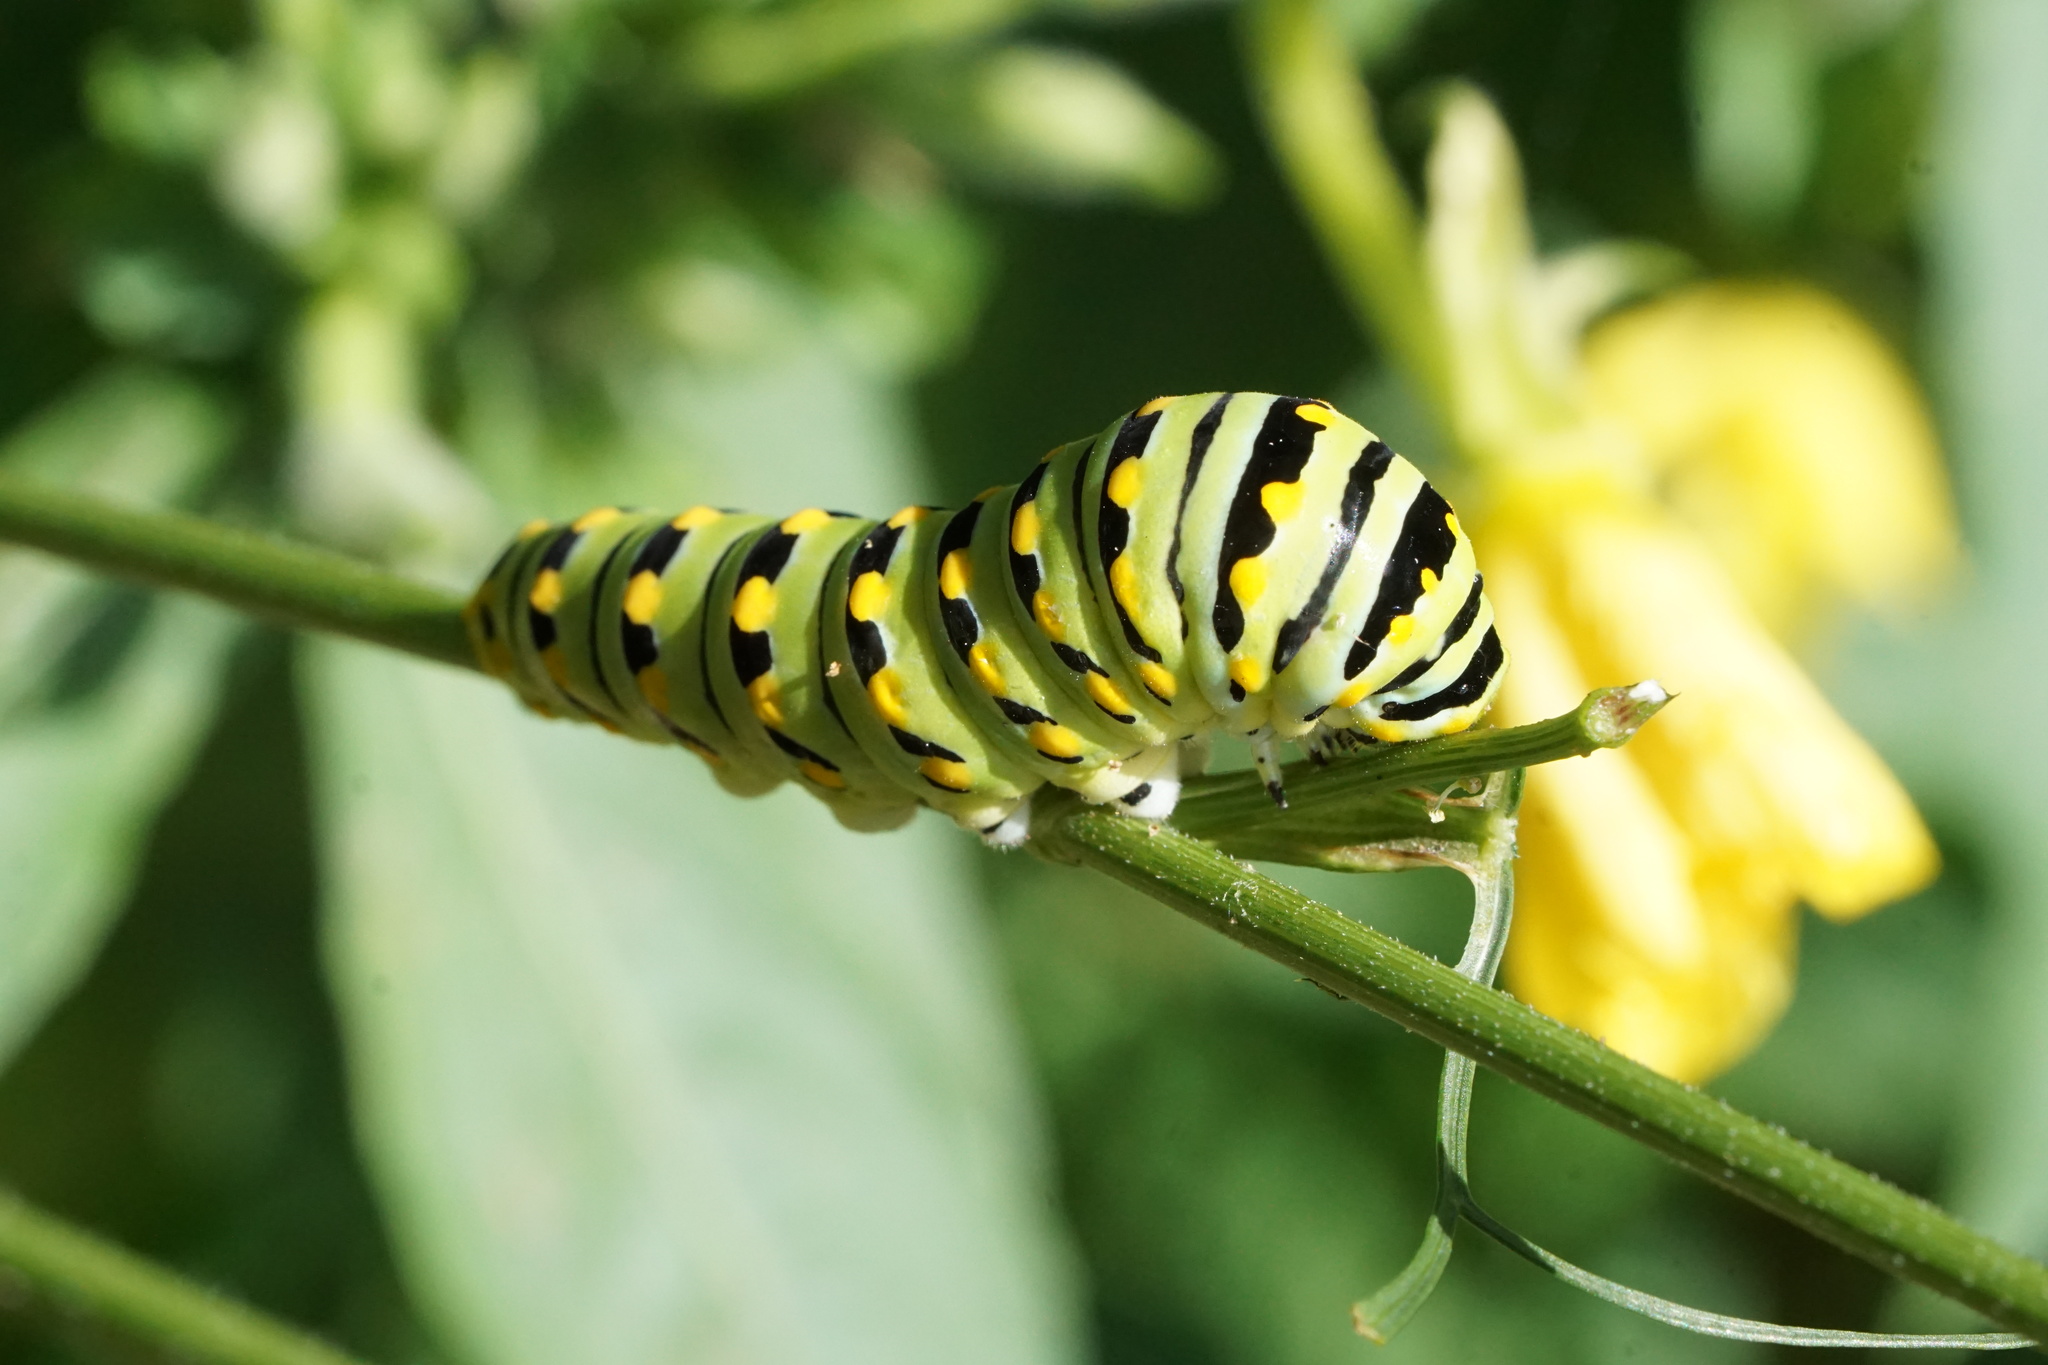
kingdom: Animalia
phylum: Arthropoda
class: Insecta
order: Lepidoptera
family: Papilionidae
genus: Papilio
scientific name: Papilio polyxenes
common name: Black swallowtail
